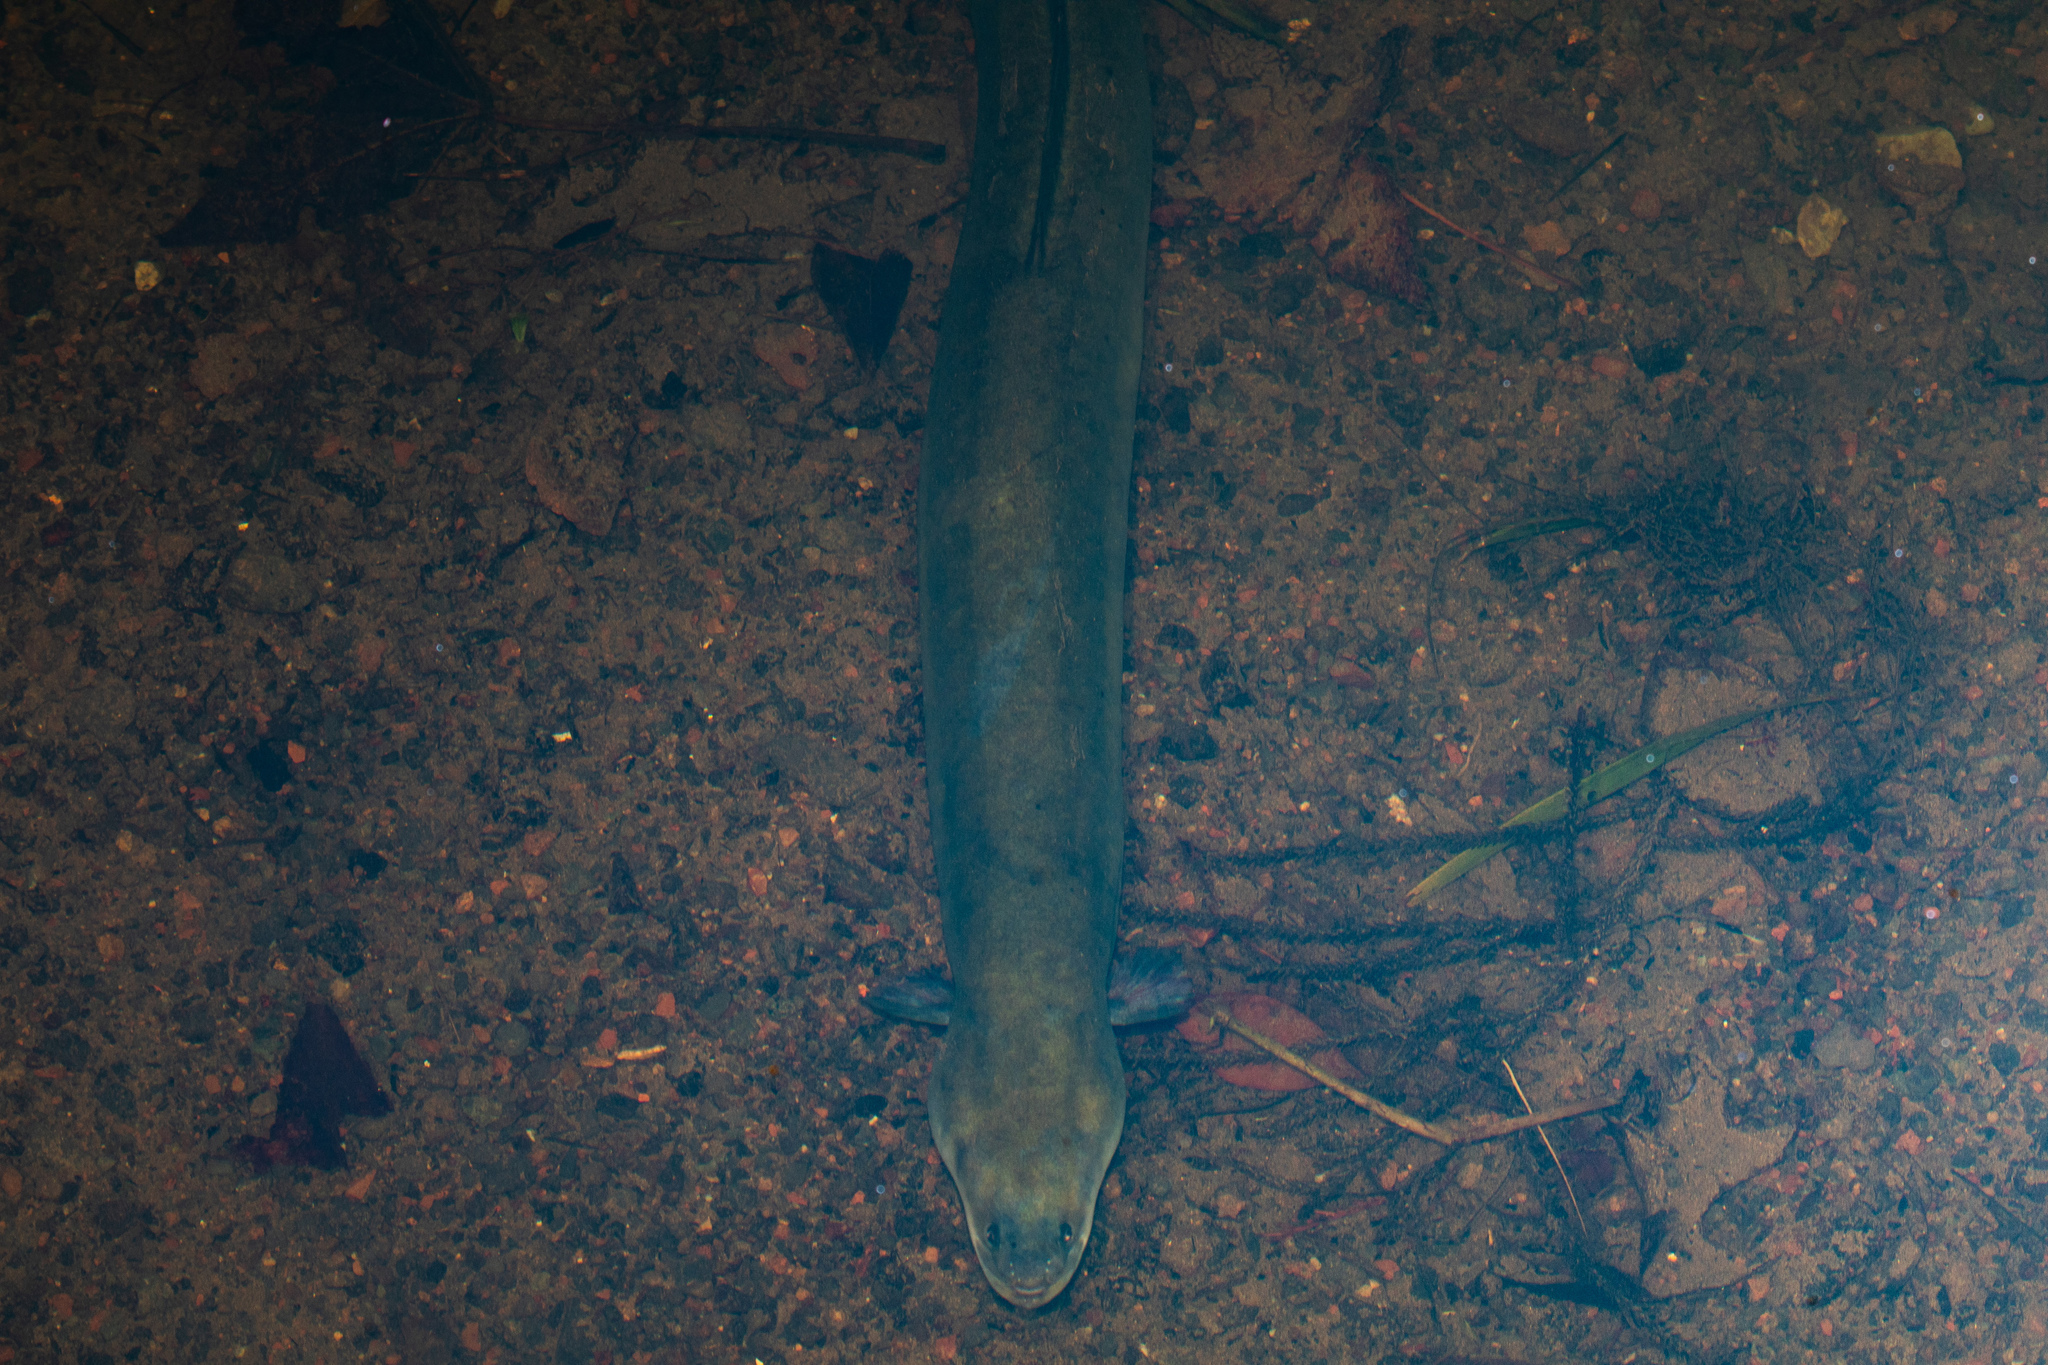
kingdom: Animalia
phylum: Chordata
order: Anguilliformes
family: Anguillidae
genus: Anguilla
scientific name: Anguilla australis
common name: Shortfin eel
